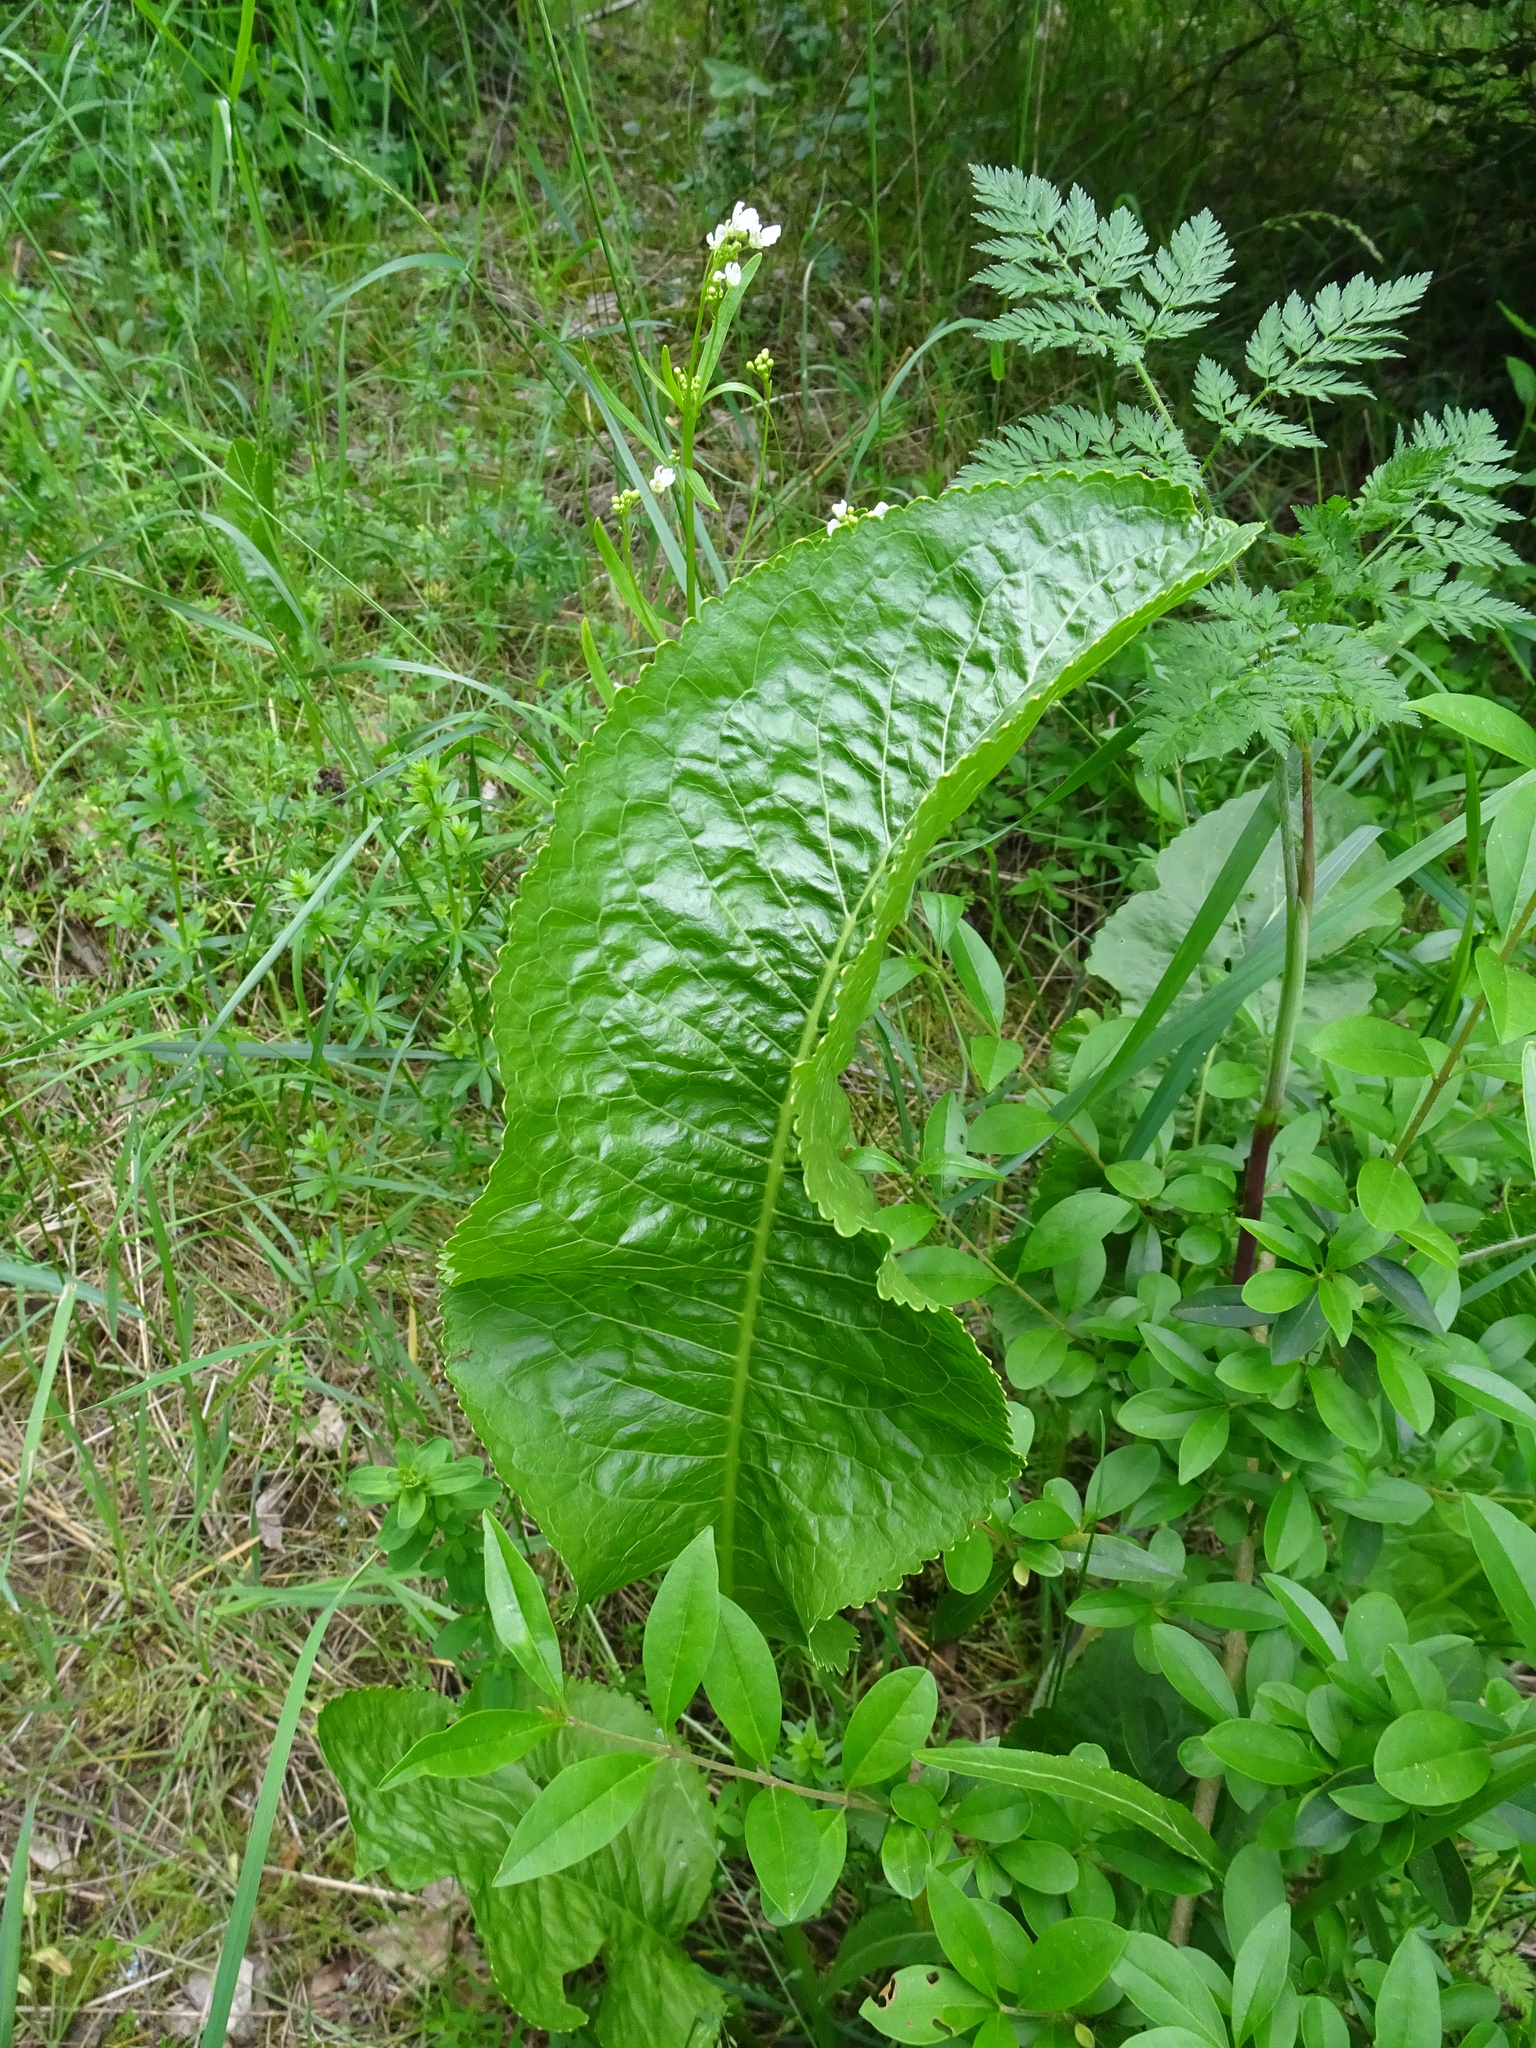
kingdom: Plantae
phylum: Tracheophyta
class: Magnoliopsida
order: Brassicales
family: Brassicaceae
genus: Armoracia
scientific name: Armoracia rusticana
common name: Horseradish
